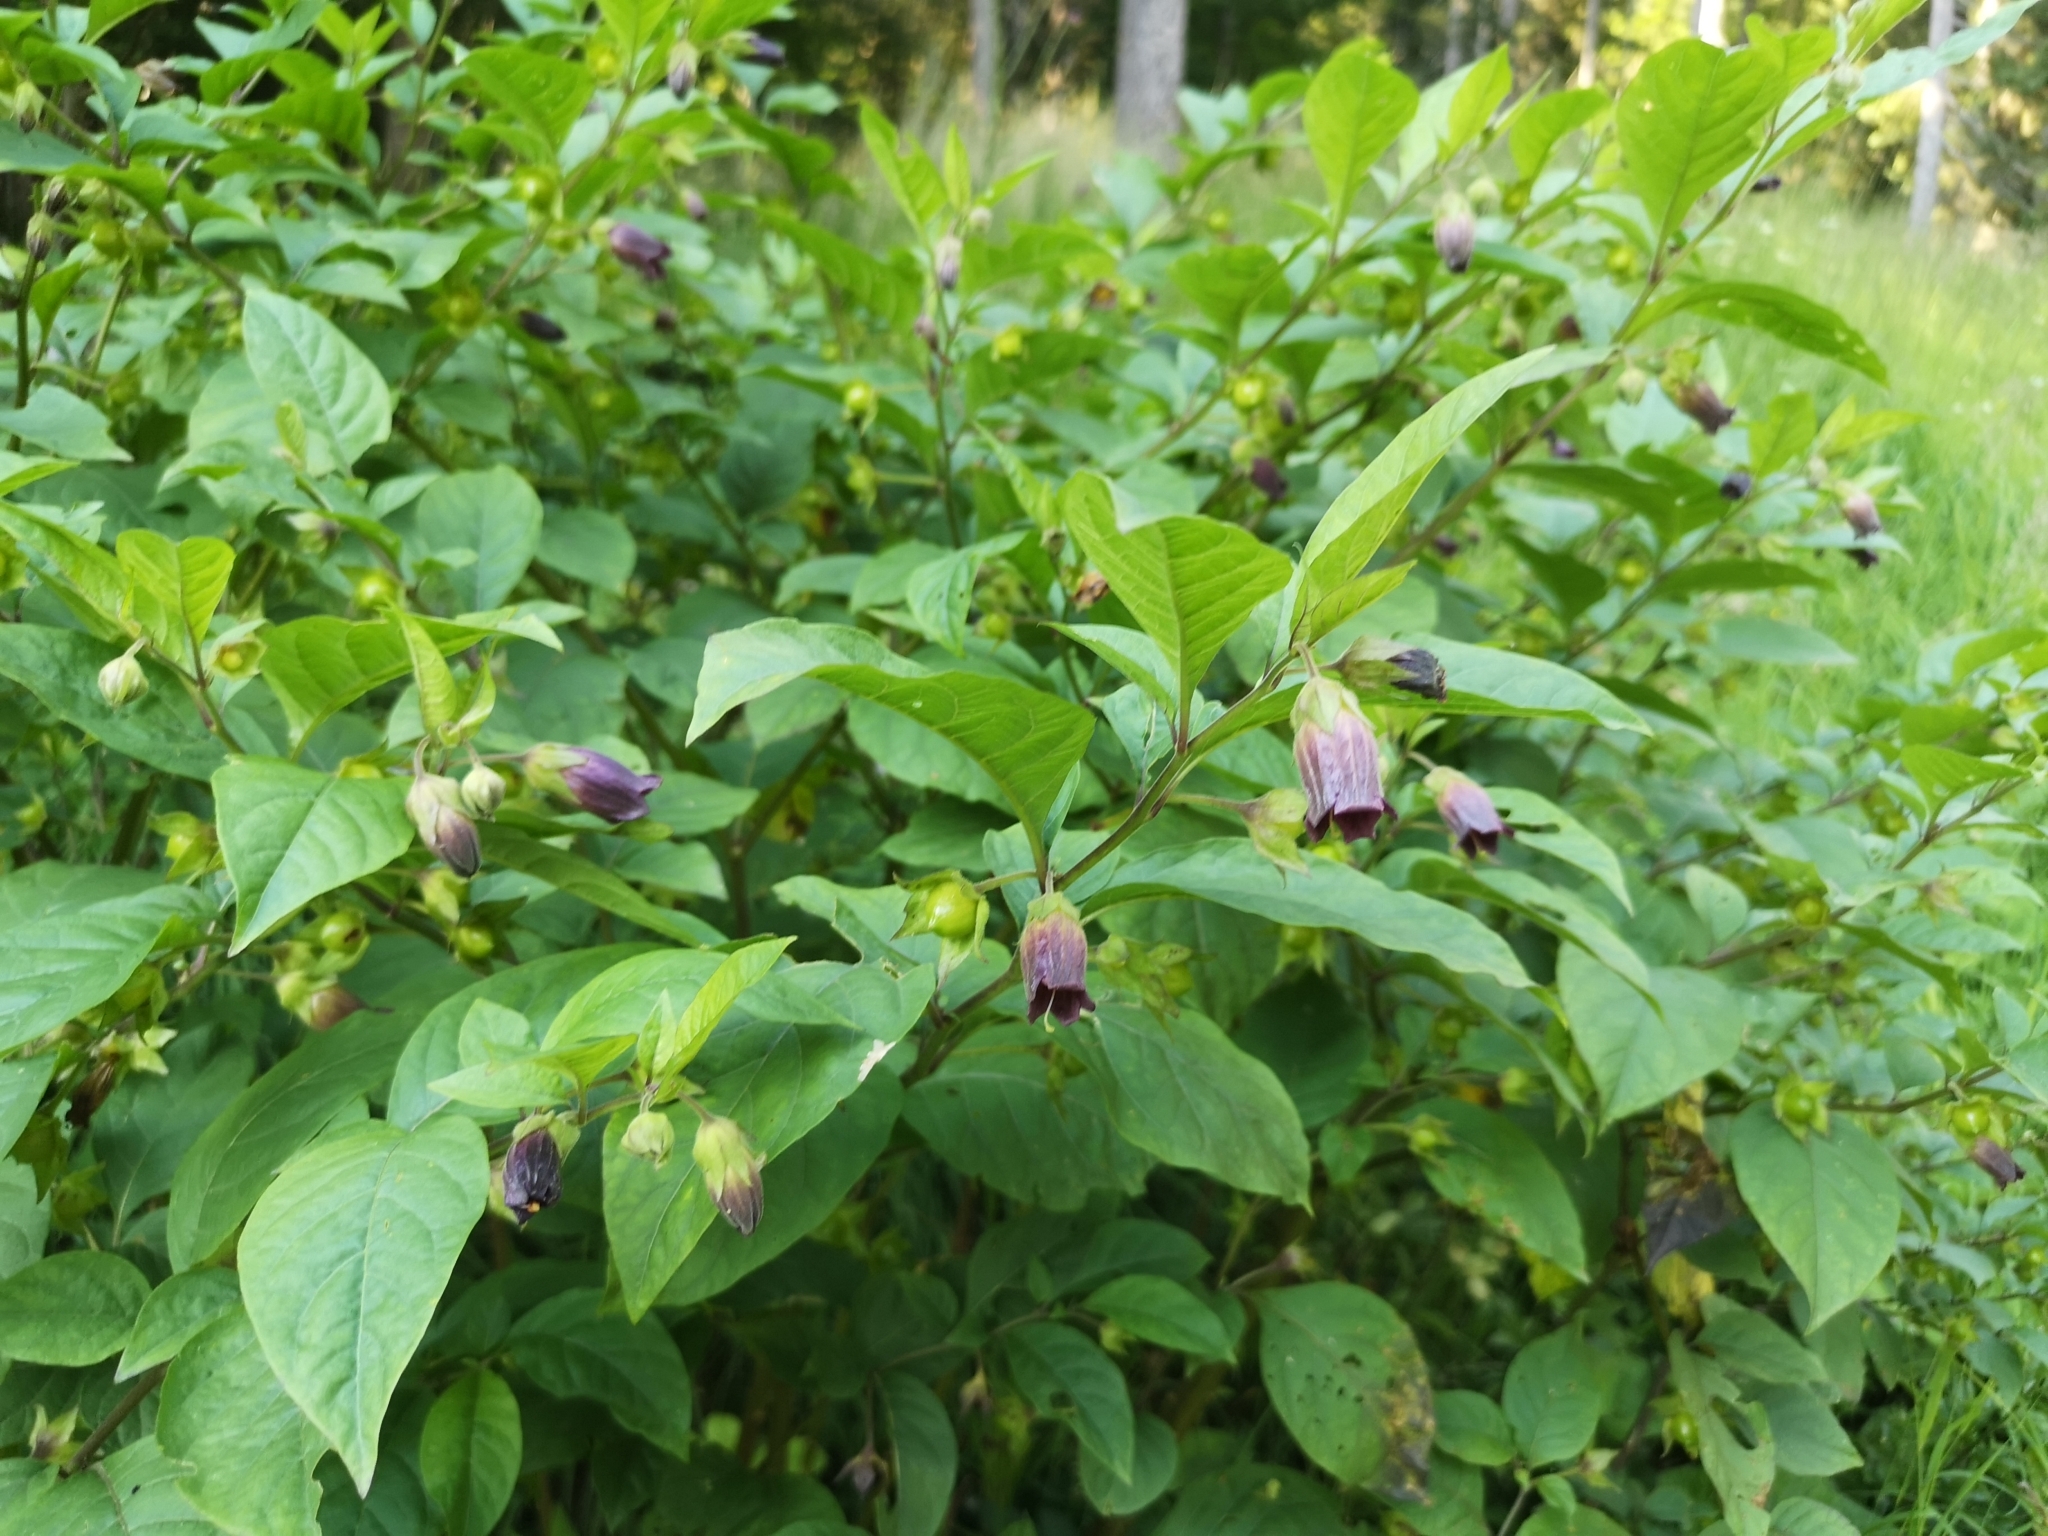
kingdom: Plantae
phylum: Tracheophyta
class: Magnoliopsida
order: Solanales
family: Solanaceae
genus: Atropa
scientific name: Atropa belladonna
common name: Deadly nightshade
